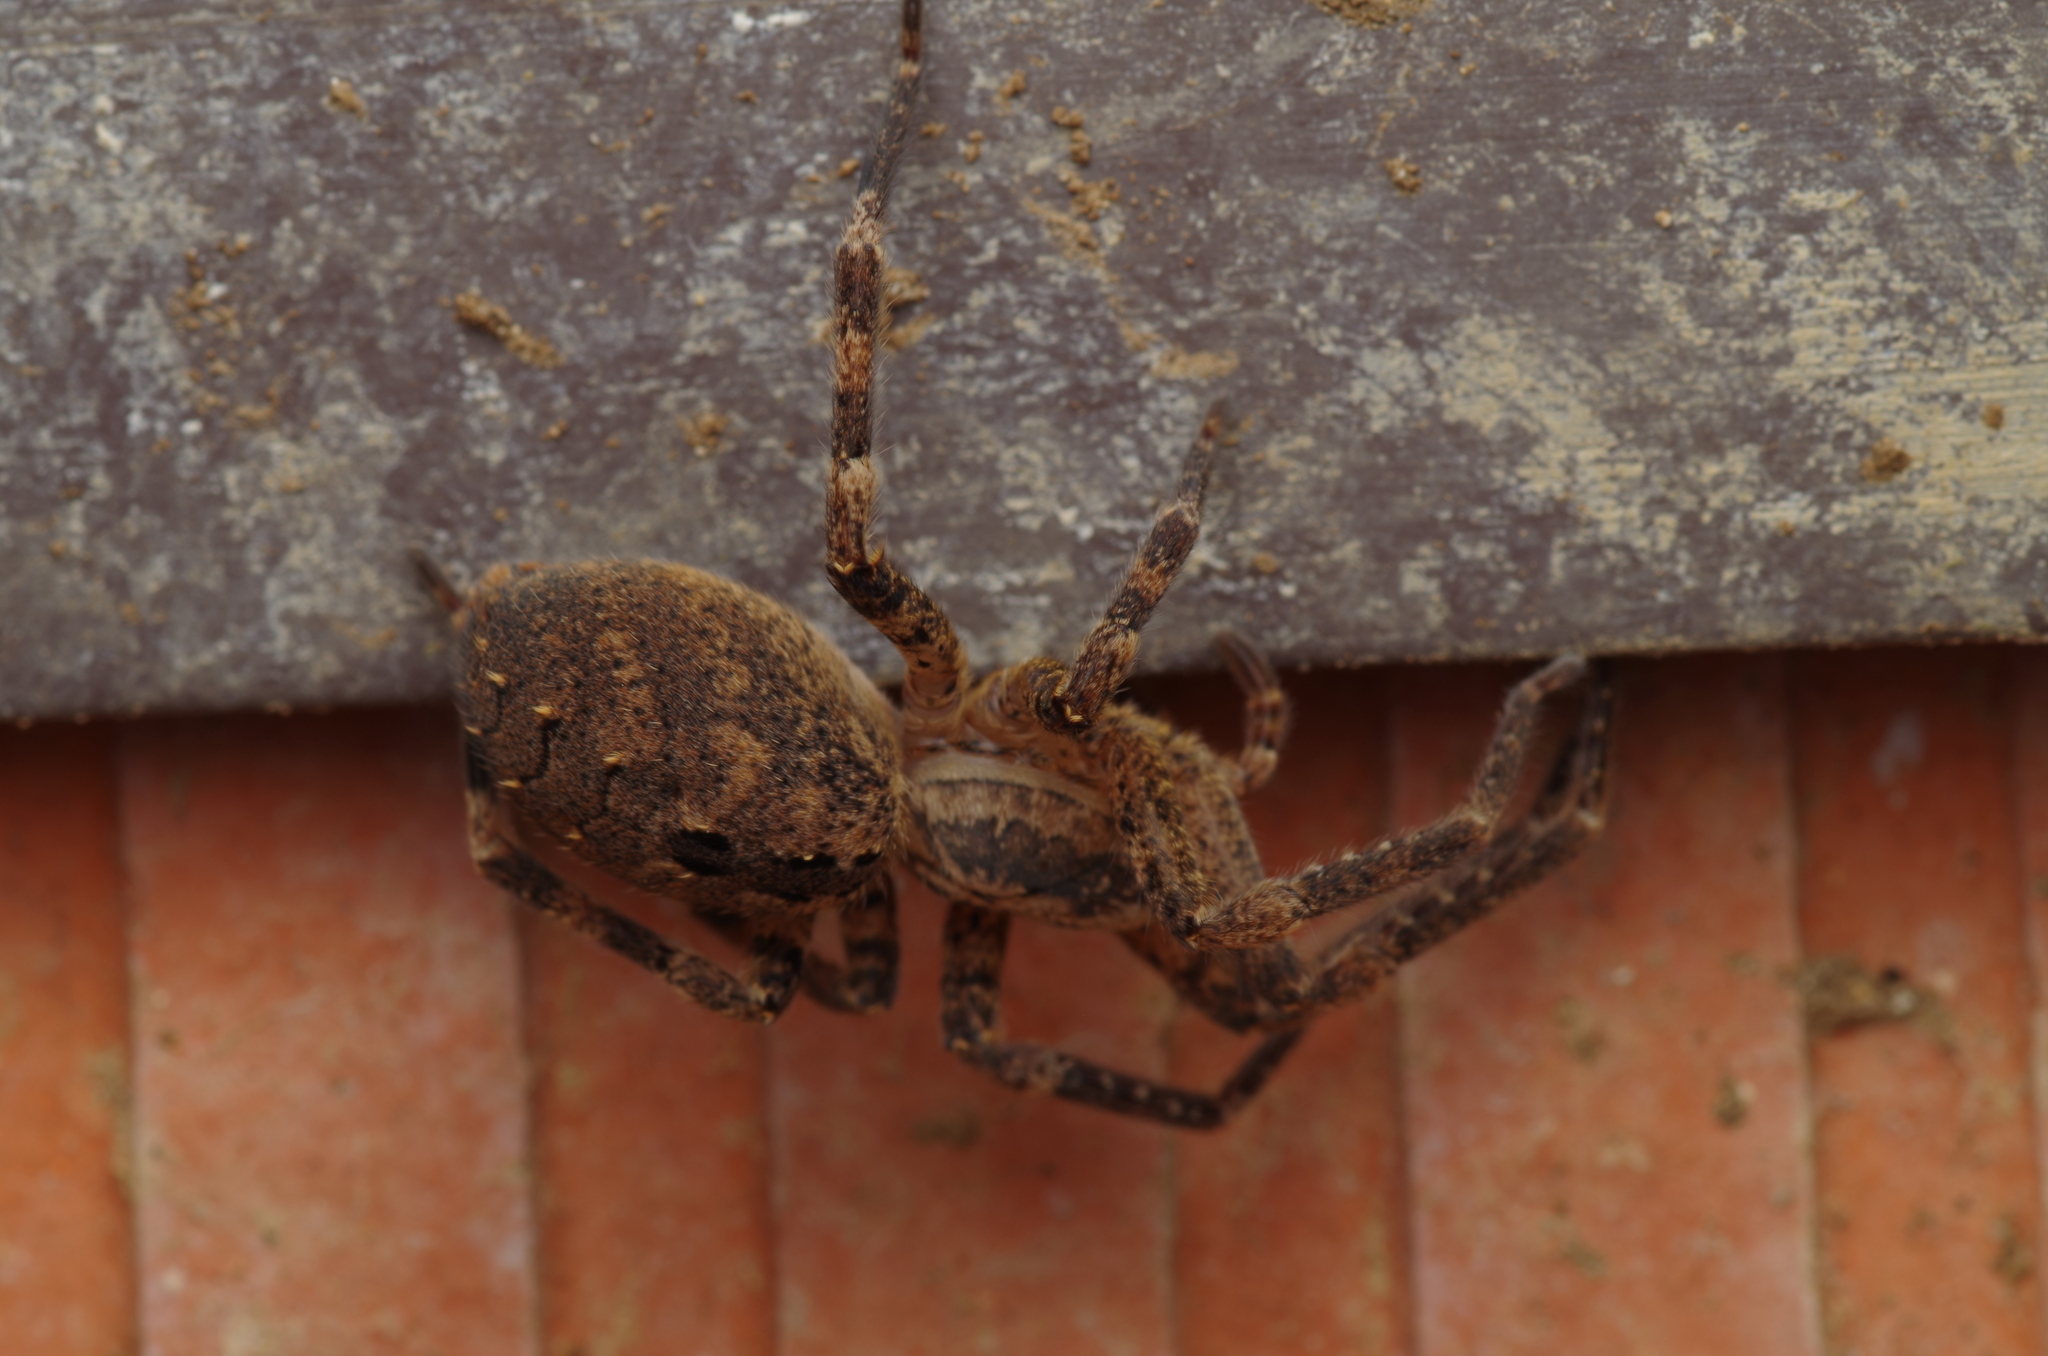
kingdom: Animalia
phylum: Arthropoda
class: Arachnida
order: Araneae
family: Zoropsidae
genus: Zoropsis
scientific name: Zoropsis spinimana
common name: Zoropsid spider
